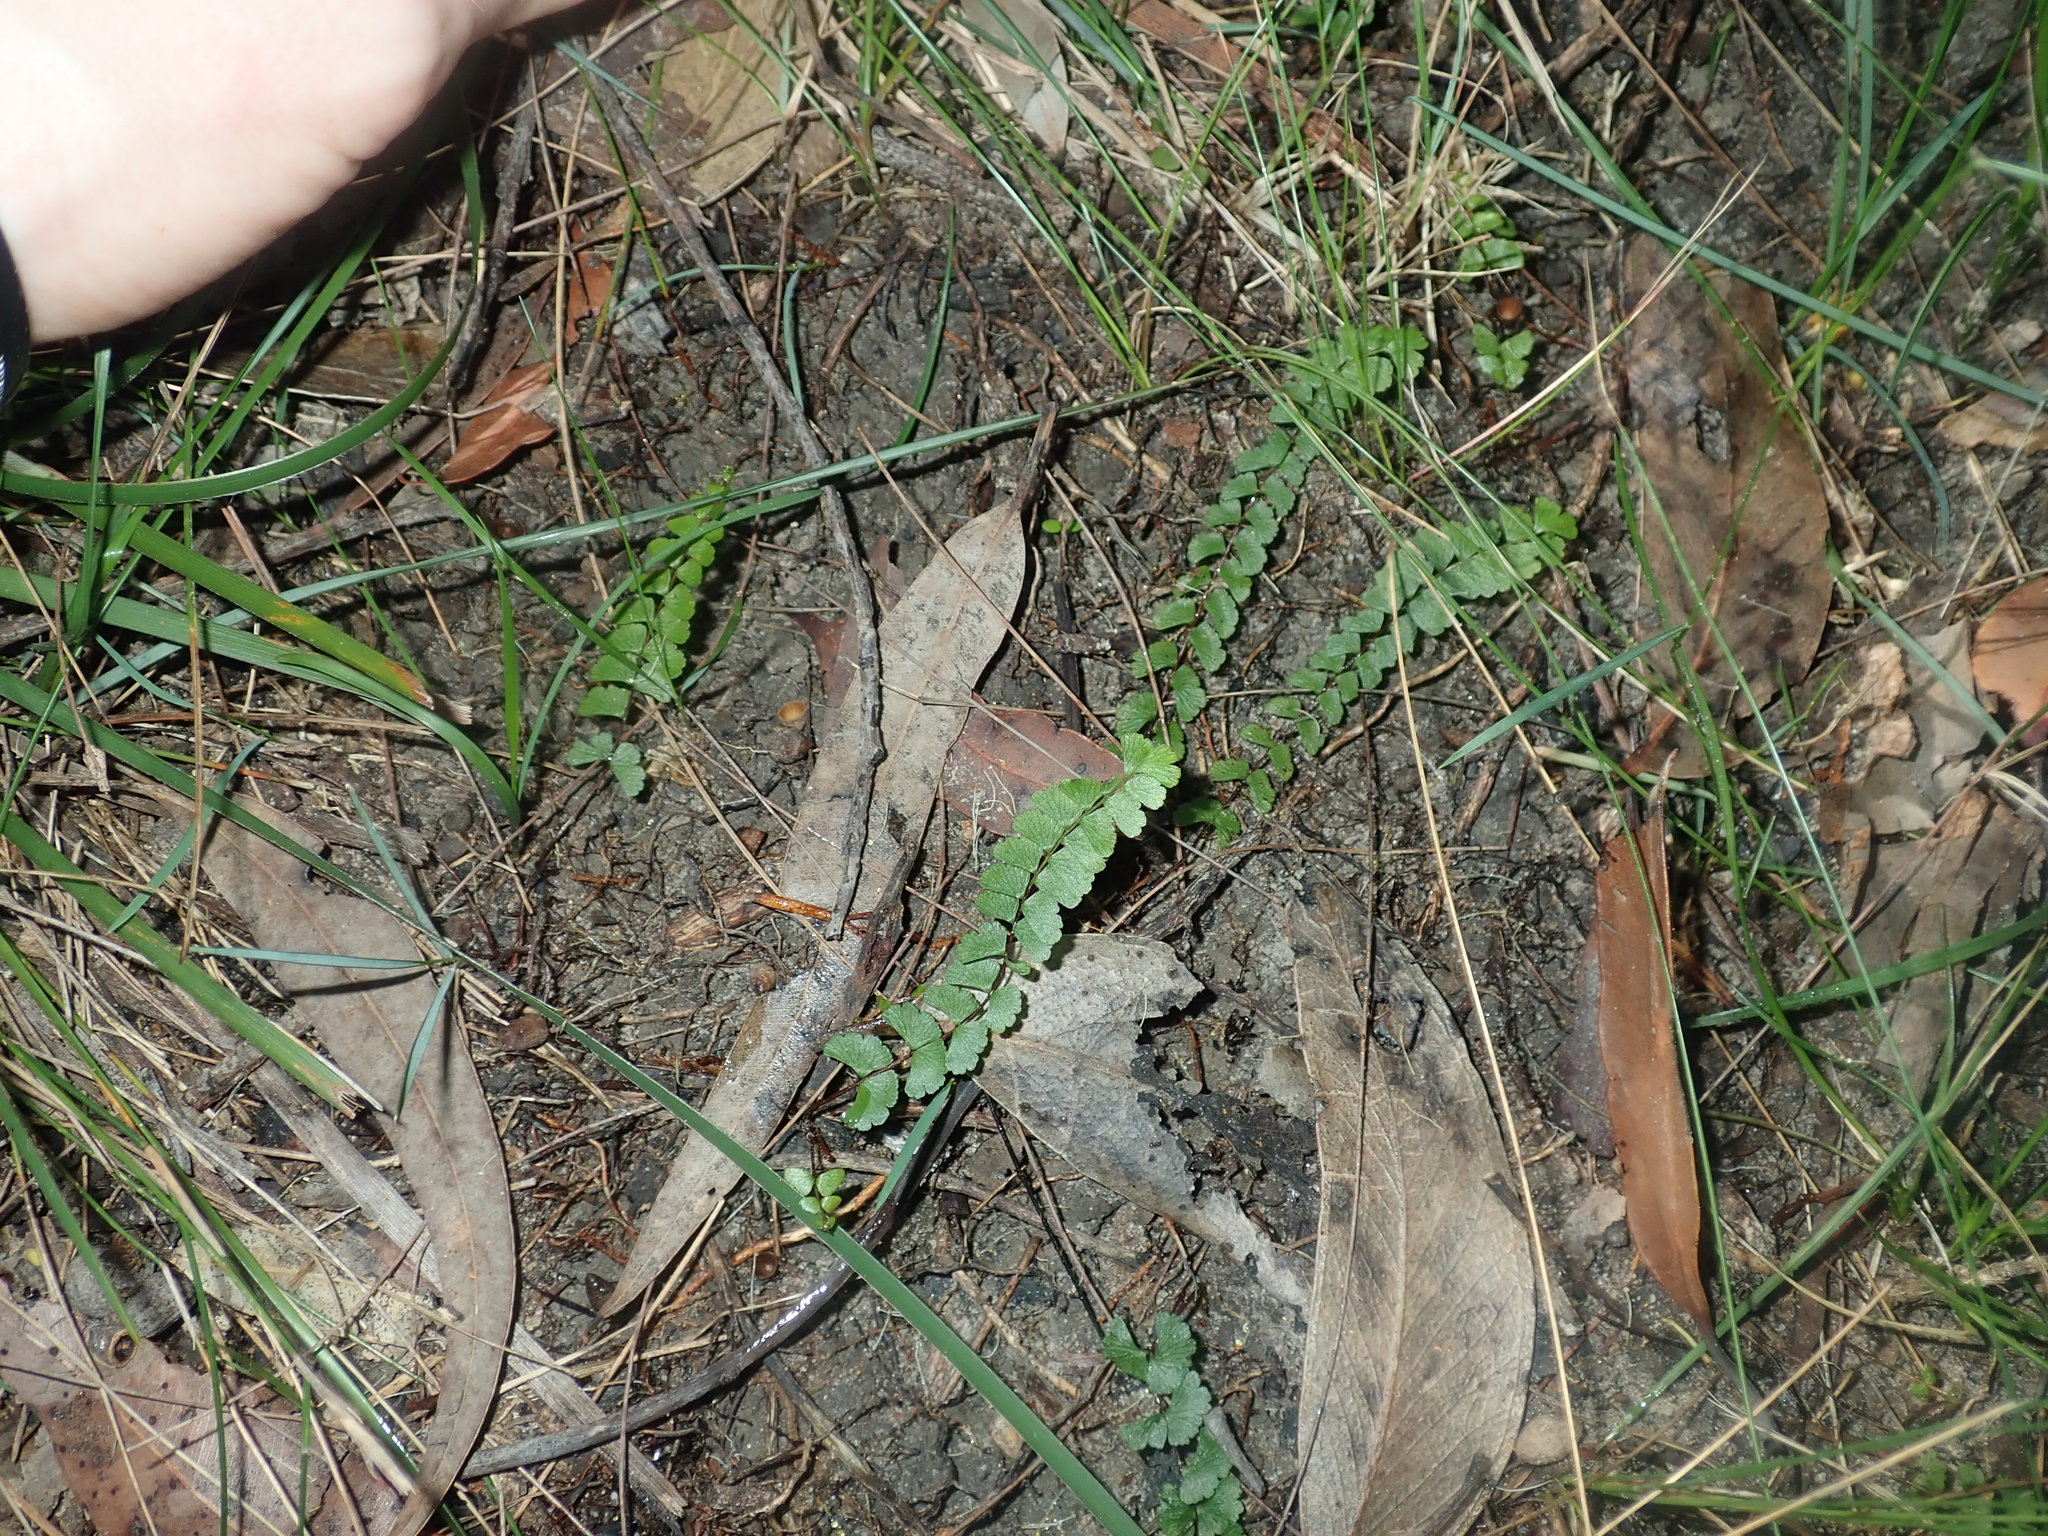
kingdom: Plantae
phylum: Tracheophyta
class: Polypodiopsida
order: Polypodiales
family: Aspleniaceae
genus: Asplenium
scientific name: Asplenium flabellifolium
